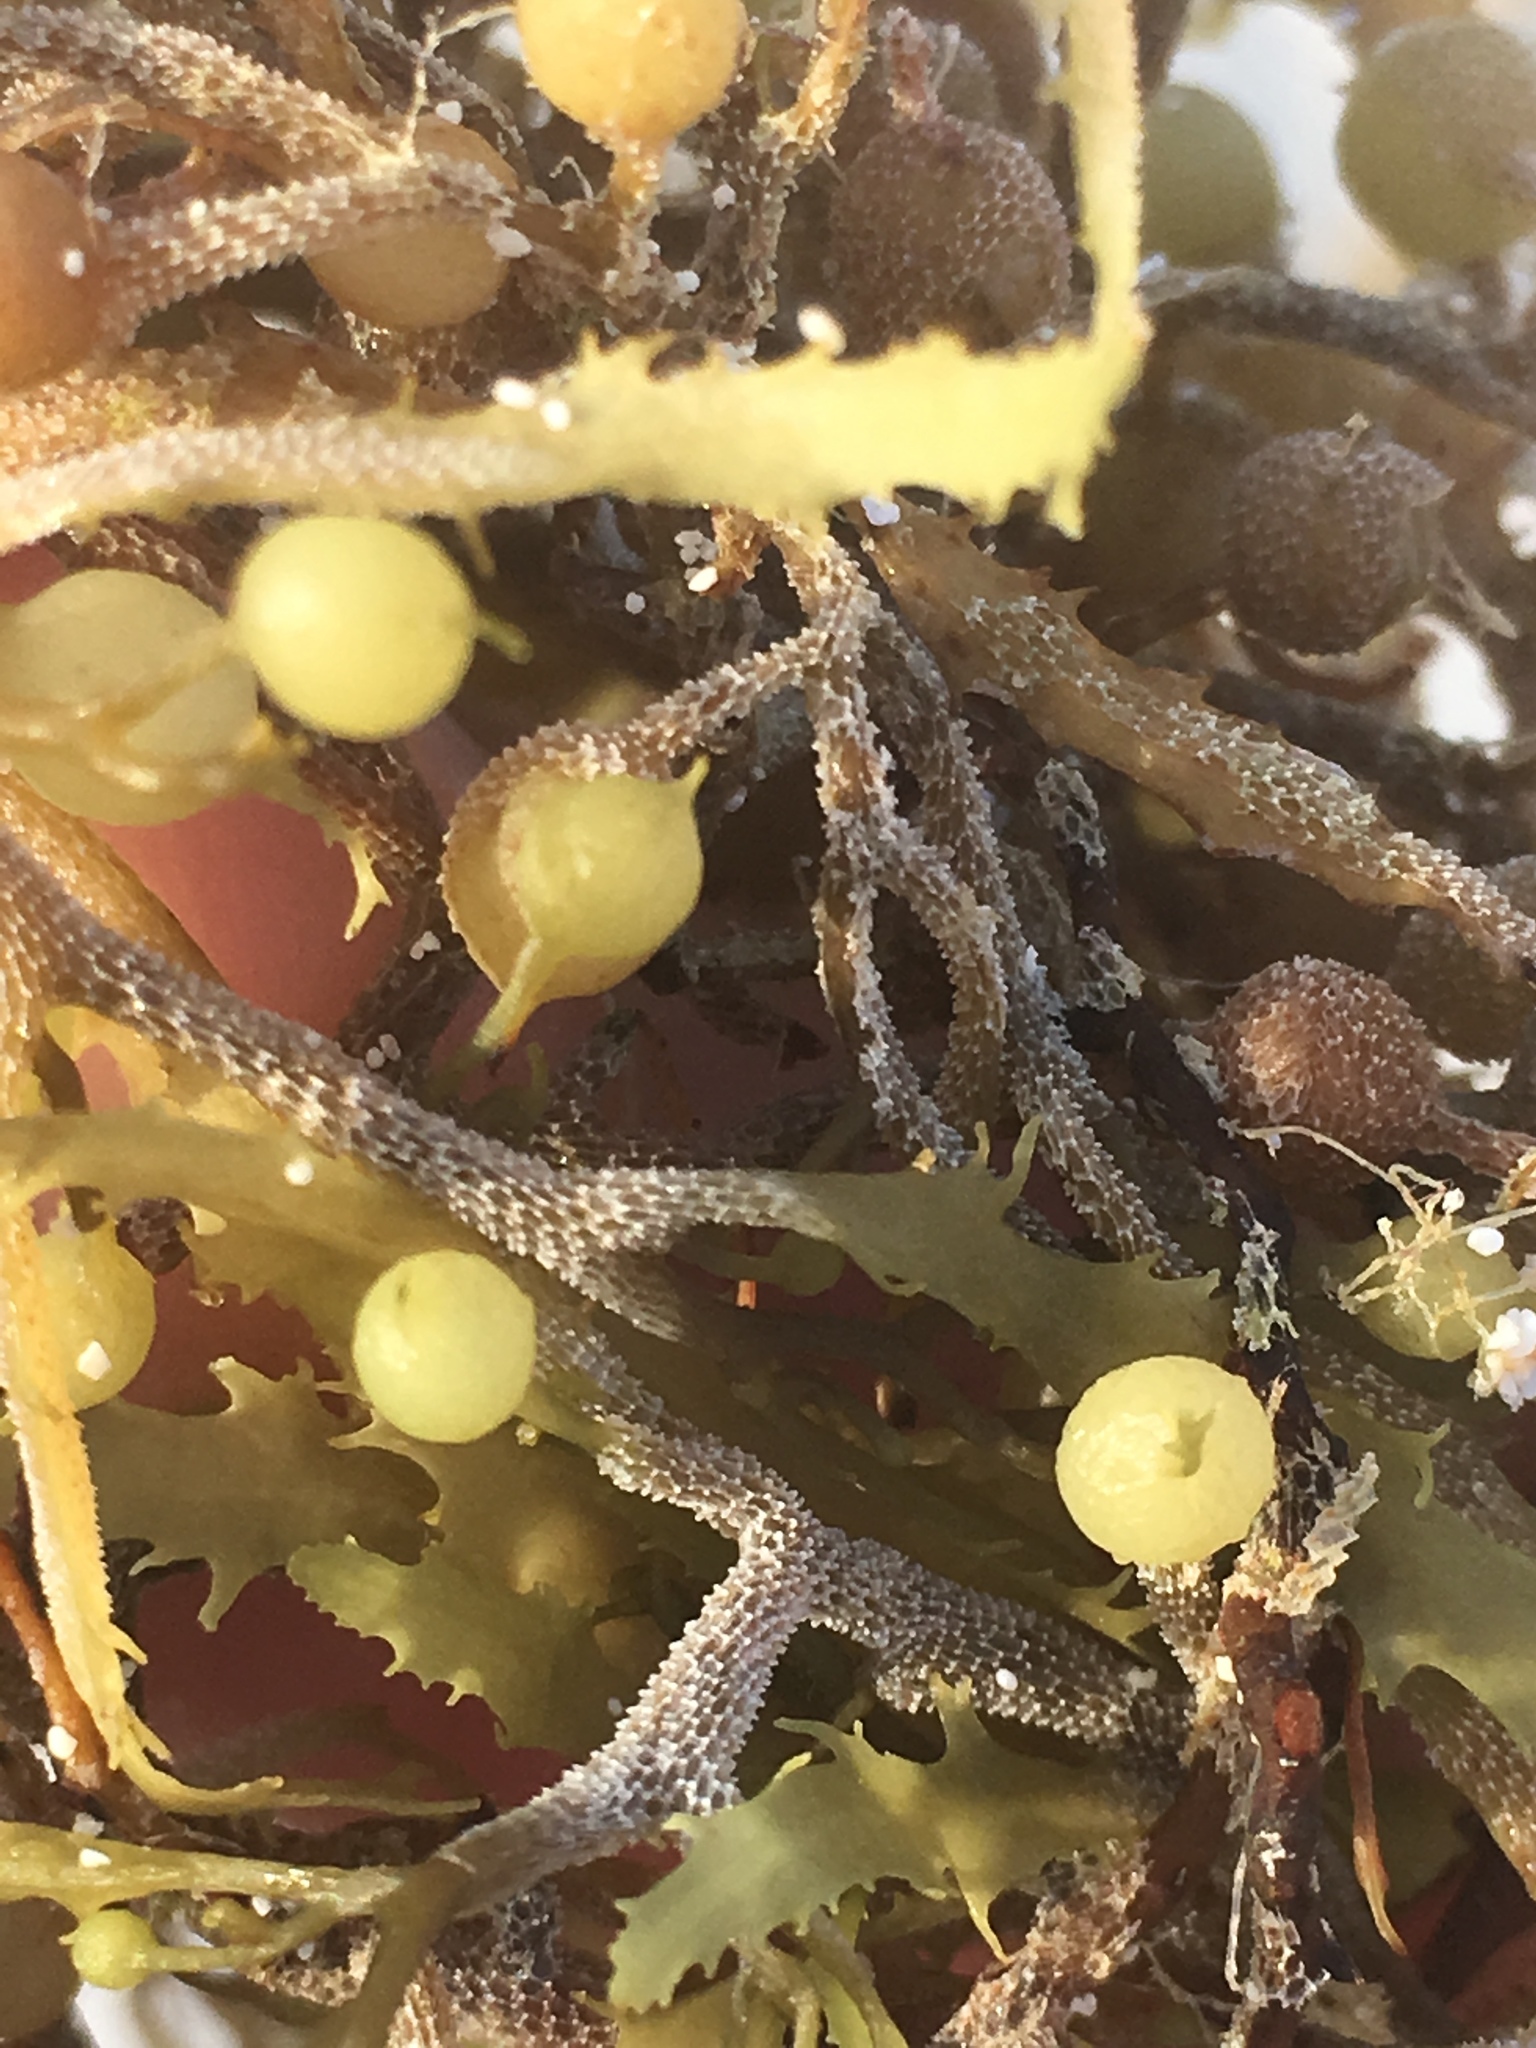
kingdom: Chromista
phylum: Ochrophyta
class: Phaeophyceae
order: Fucales
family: Sargassaceae
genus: Sargassum
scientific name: Sargassum natans
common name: Sargasso weed
